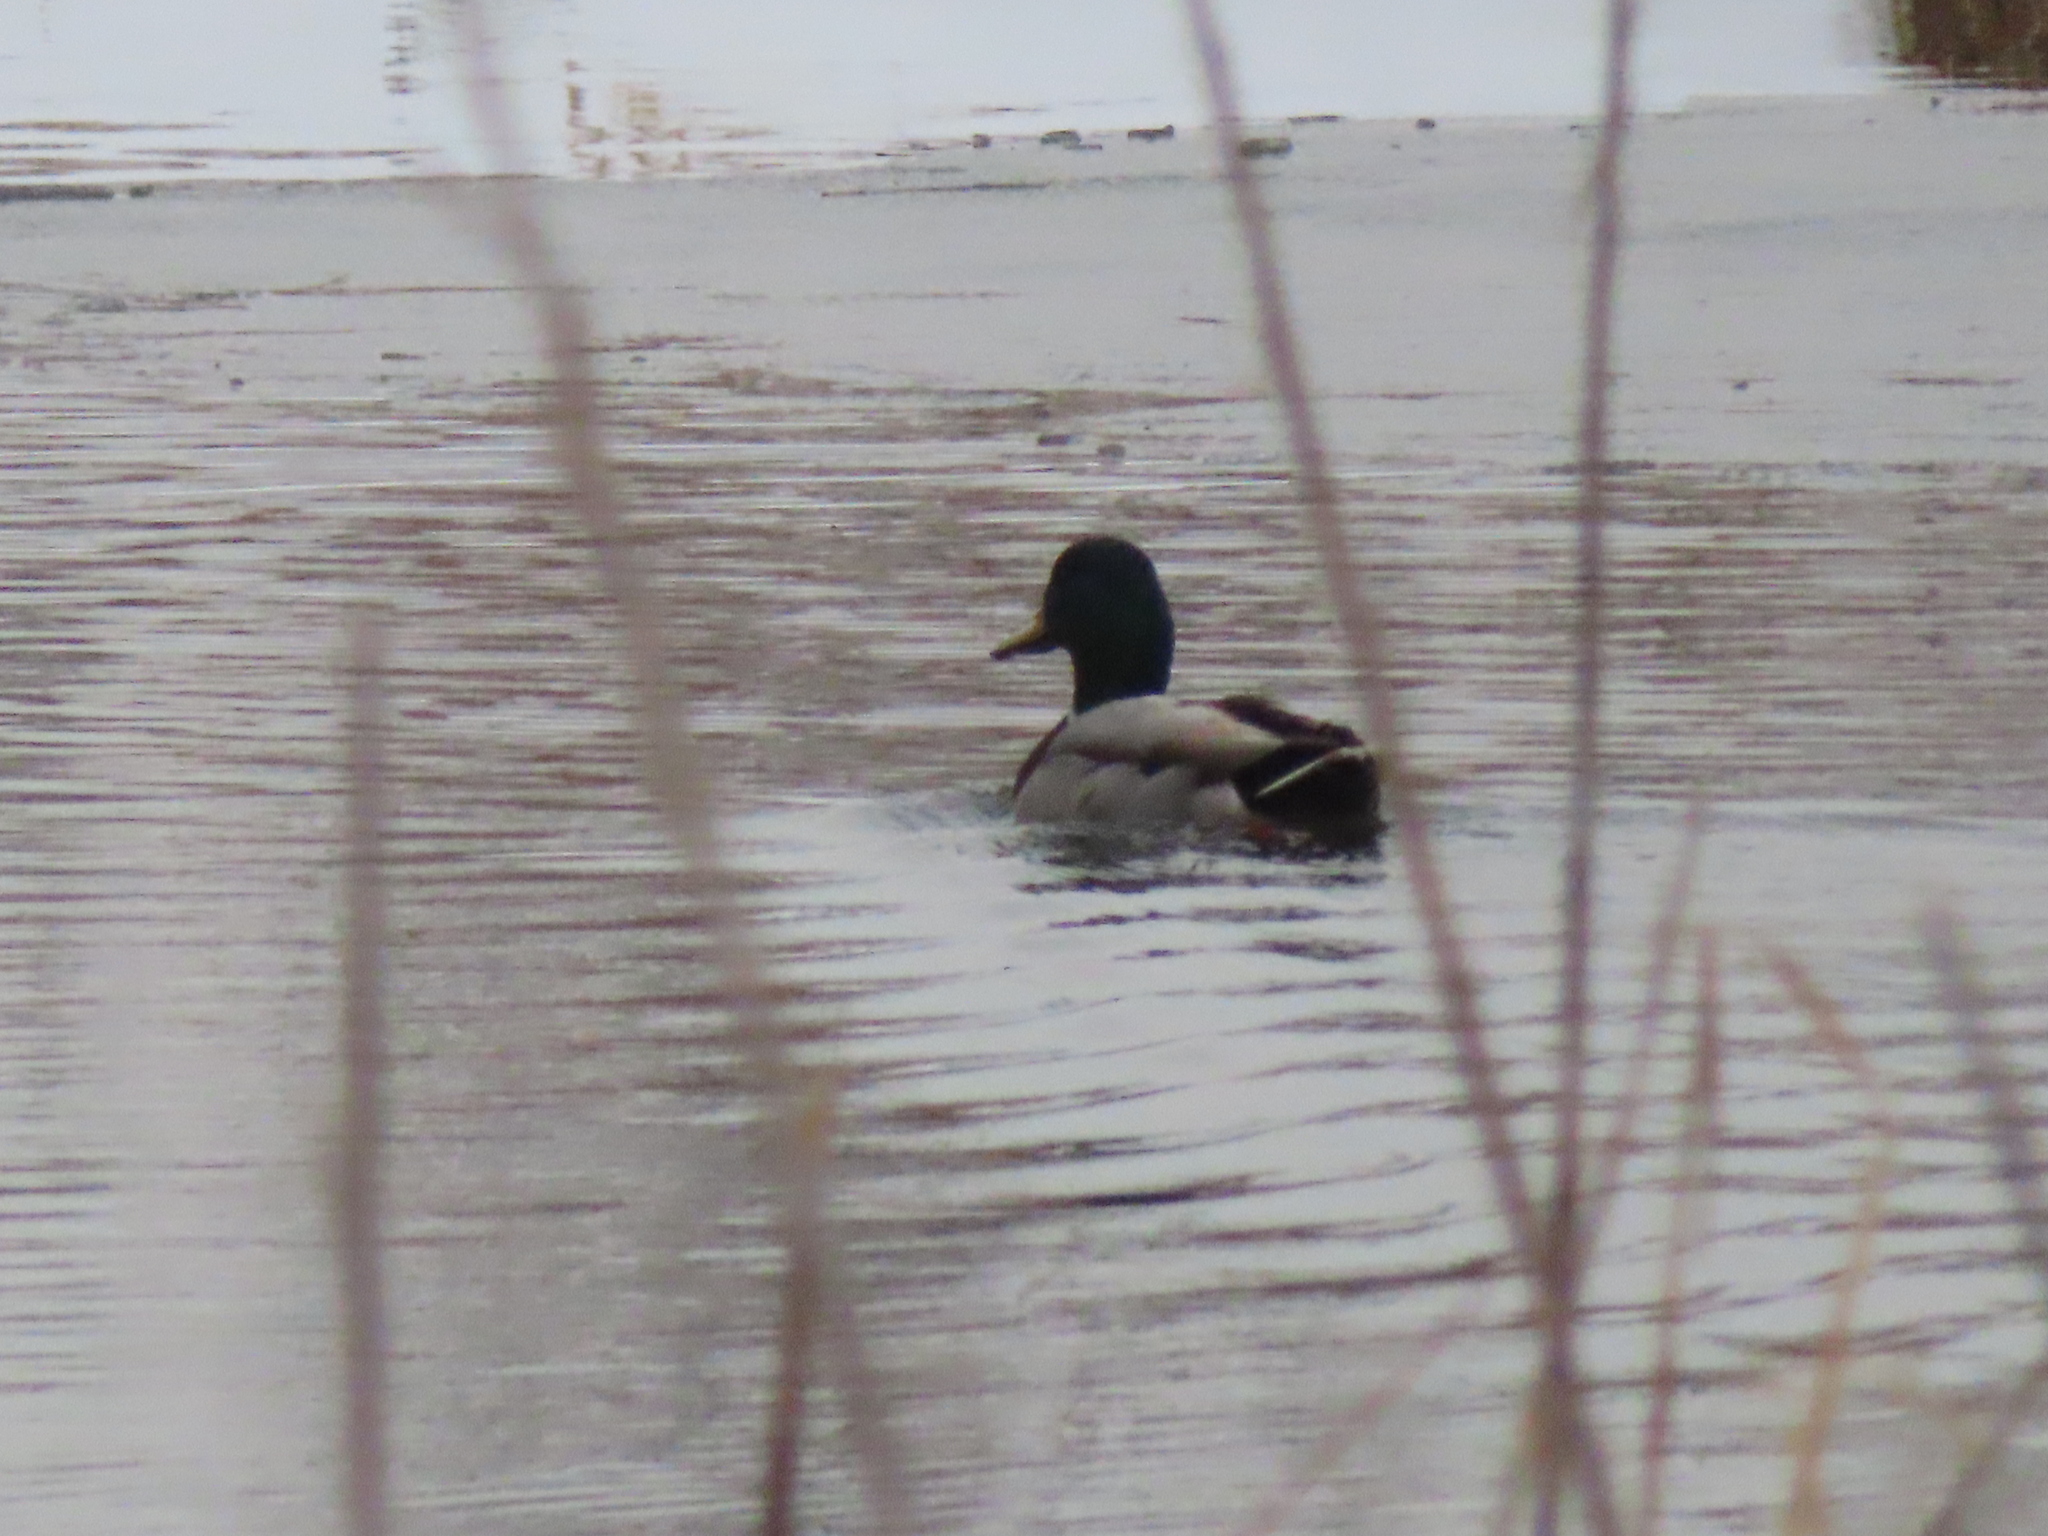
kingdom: Animalia
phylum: Chordata
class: Aves
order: Anseriformes
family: Anatidae
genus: Anas
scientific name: Anas platyrhynchos
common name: Mallard
